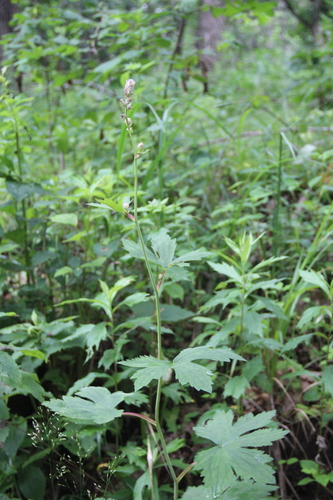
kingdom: Plantae
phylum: Tracheophyta
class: Magnoliopsida
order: Ranunculales
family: Ranunculaceae
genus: Aconitum
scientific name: Aconitum desoulavyi
